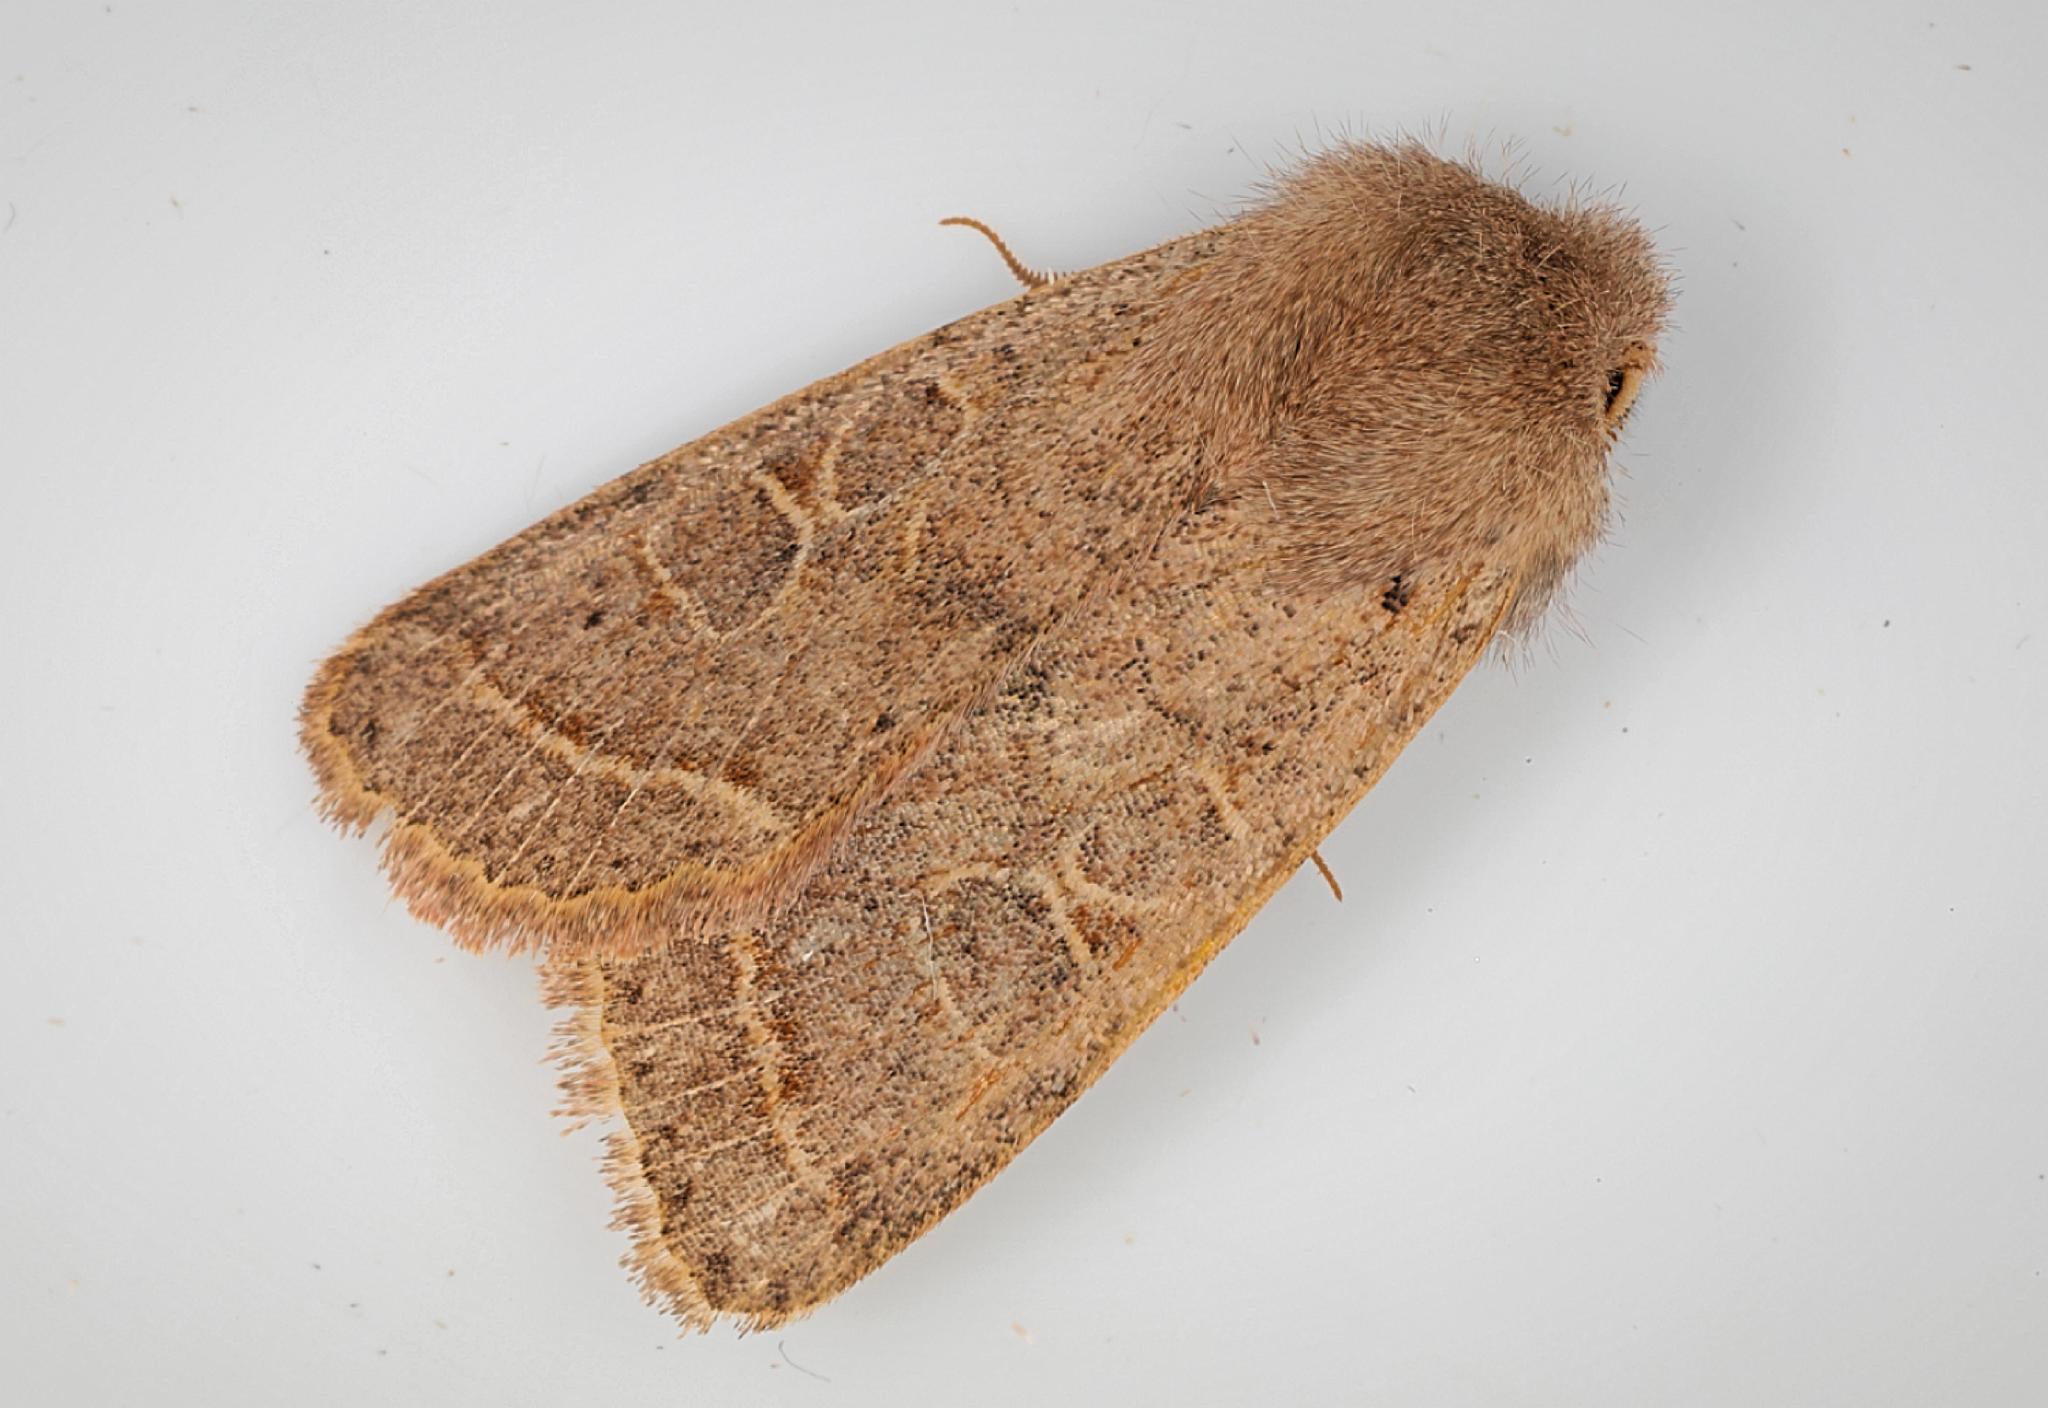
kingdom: Animalia
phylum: Arthropoda
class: Insecta
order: Lepidoptera
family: Noctuidae
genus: Orthosia
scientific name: Orthosia cerasi
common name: Common quaker
